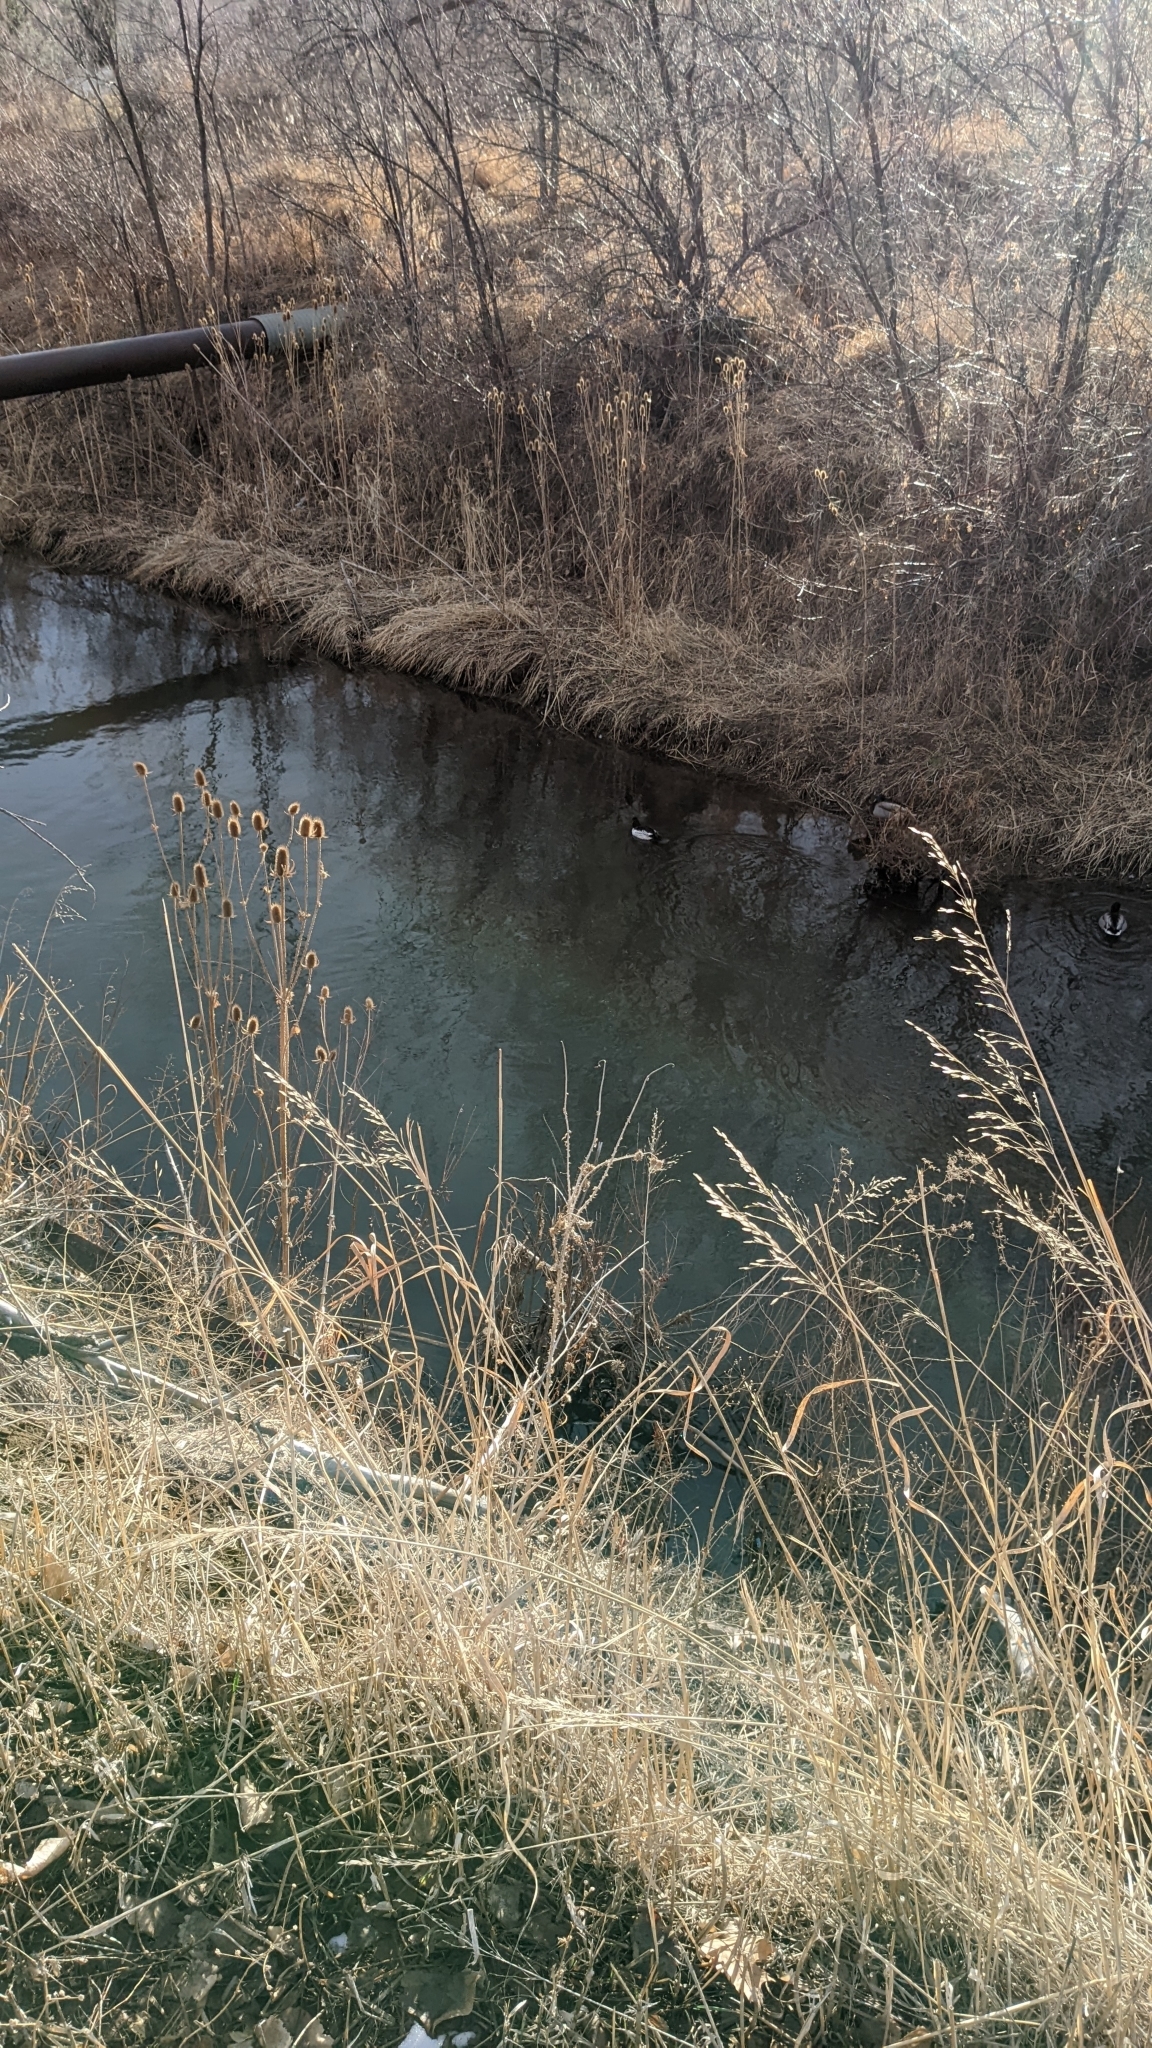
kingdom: Animalia
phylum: Chordata
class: Aves
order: Anseriformes
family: Anatidae
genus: Bucephala
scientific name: Bucephala clangula
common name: Common goldeneye
